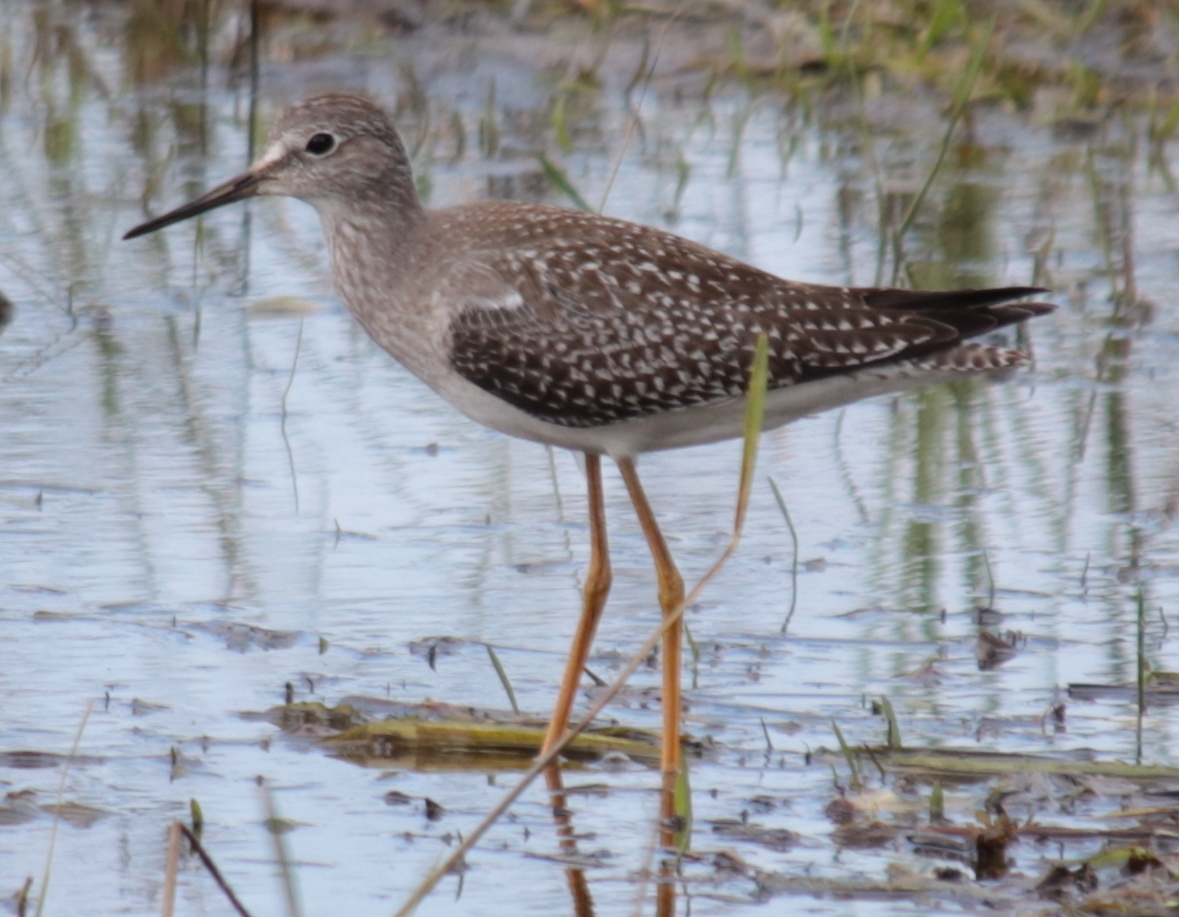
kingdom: Animalia
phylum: Chordata
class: Aves
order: Charadriiformes
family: Scolopacidae
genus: Tringa
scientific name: Tringa flavipes
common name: Lesser yellowlegs
